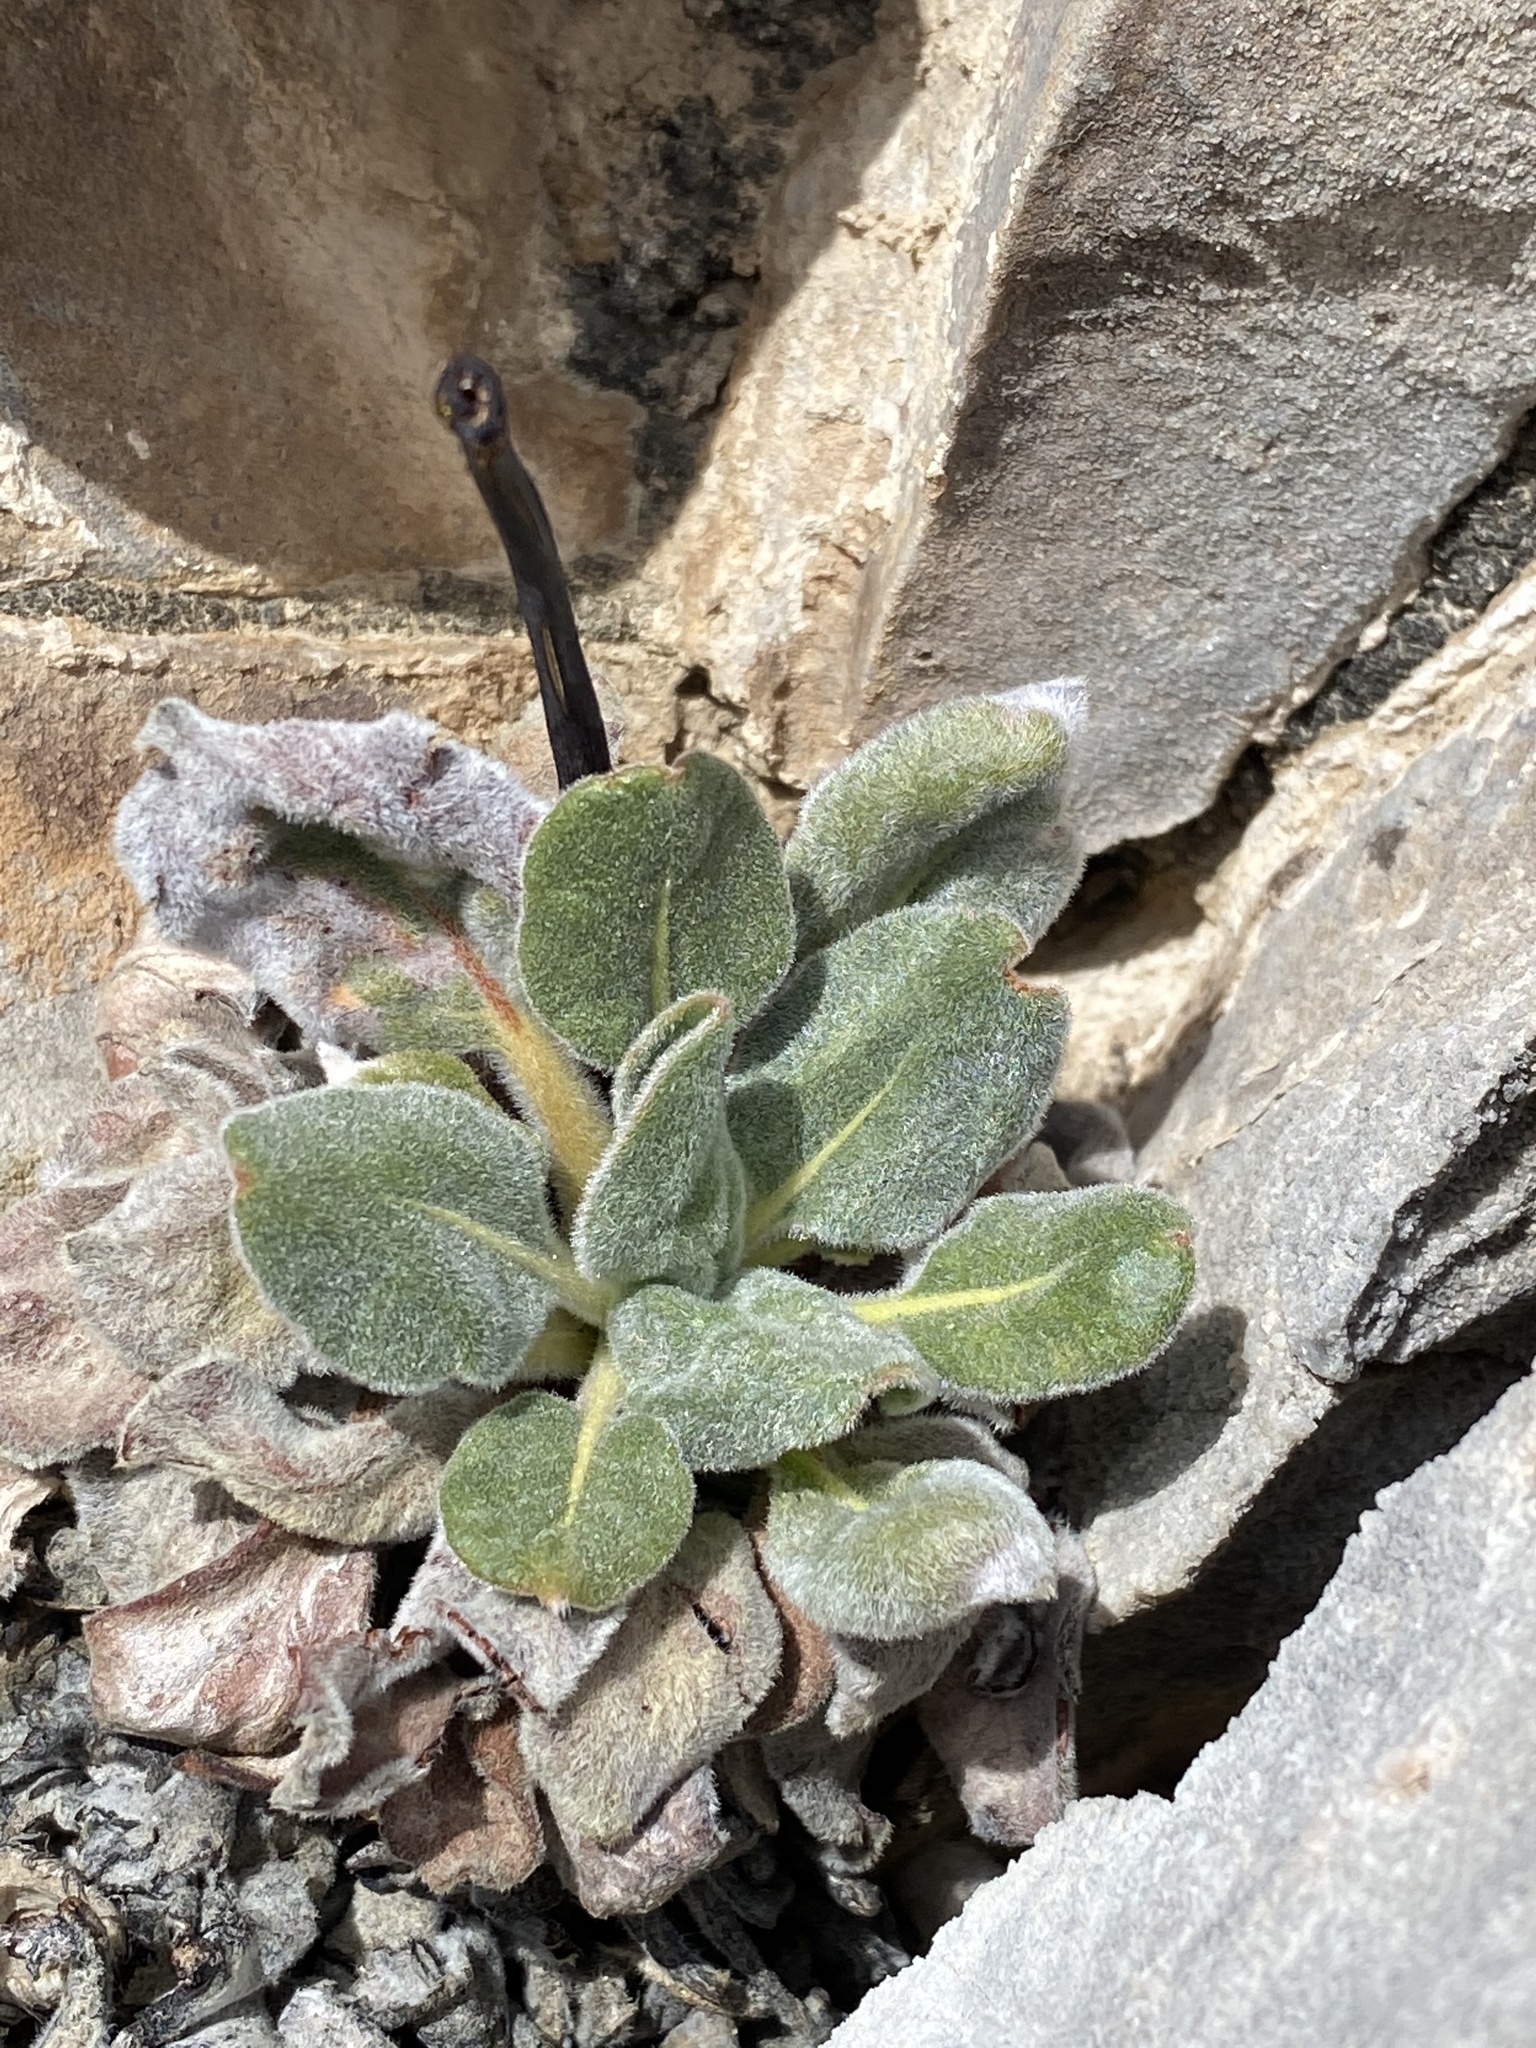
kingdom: Plantae
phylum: Tracheophyta
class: Magnoliopsida
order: Caryophyllales
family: Polygonaceae
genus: Eriogonum
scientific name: Eriogonum intrafractum
